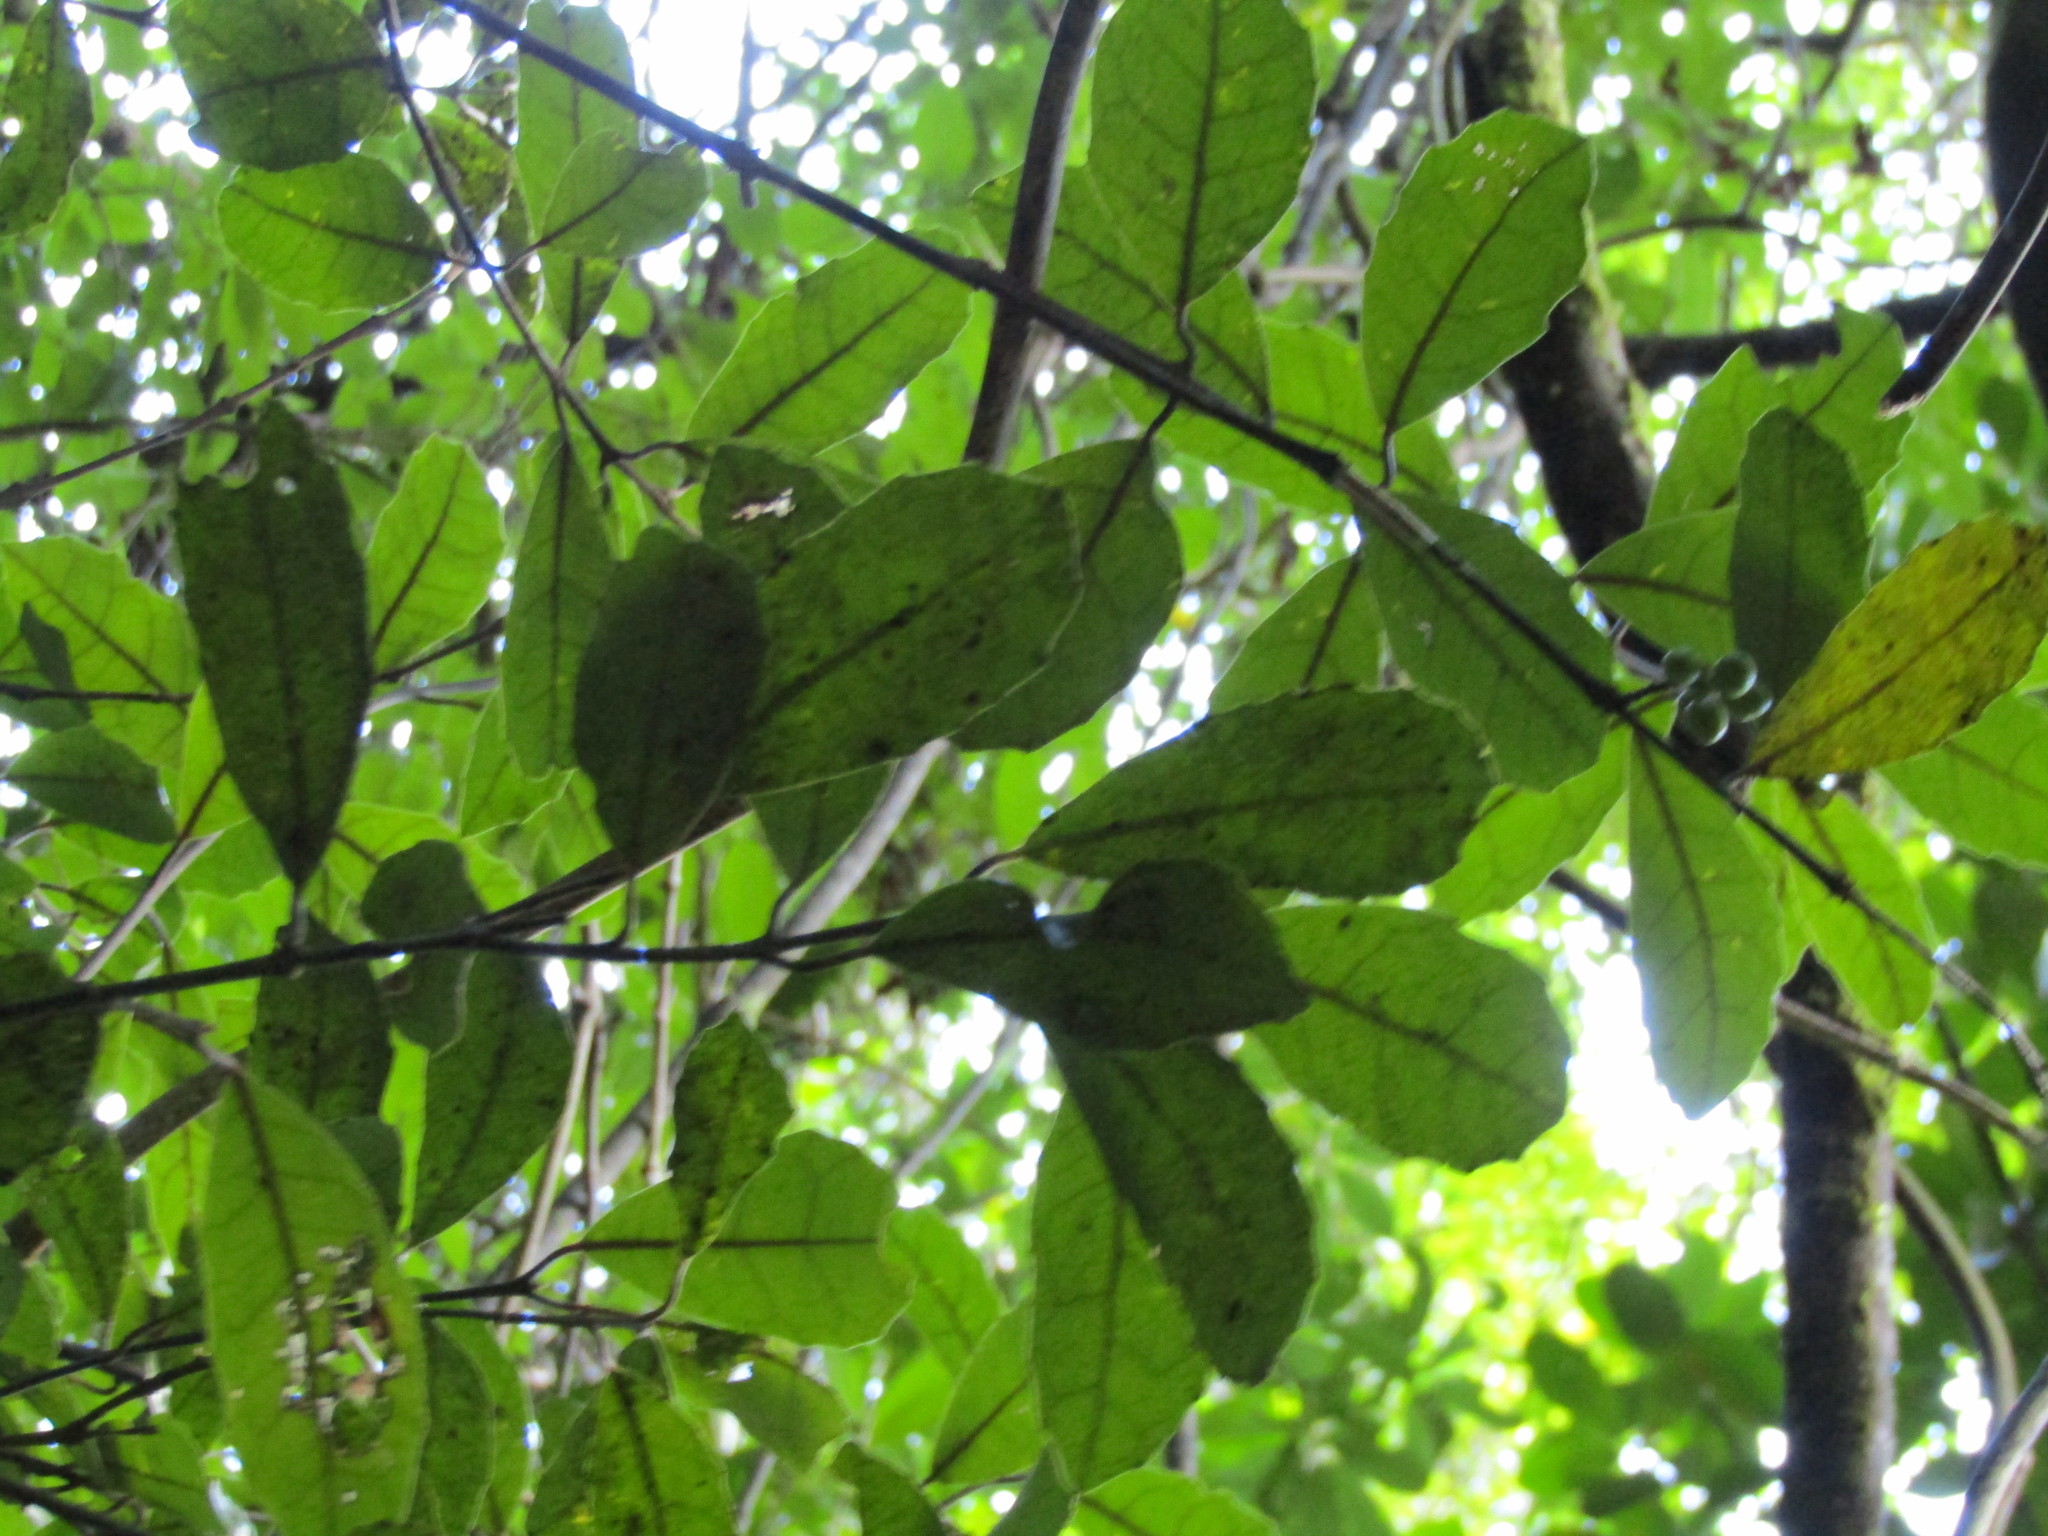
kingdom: Plantae
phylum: Tracheophyta
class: Magnoliopsida
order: Laurales
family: Monimiaceae
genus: Hedycarya
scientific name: Hedycarya arborea
